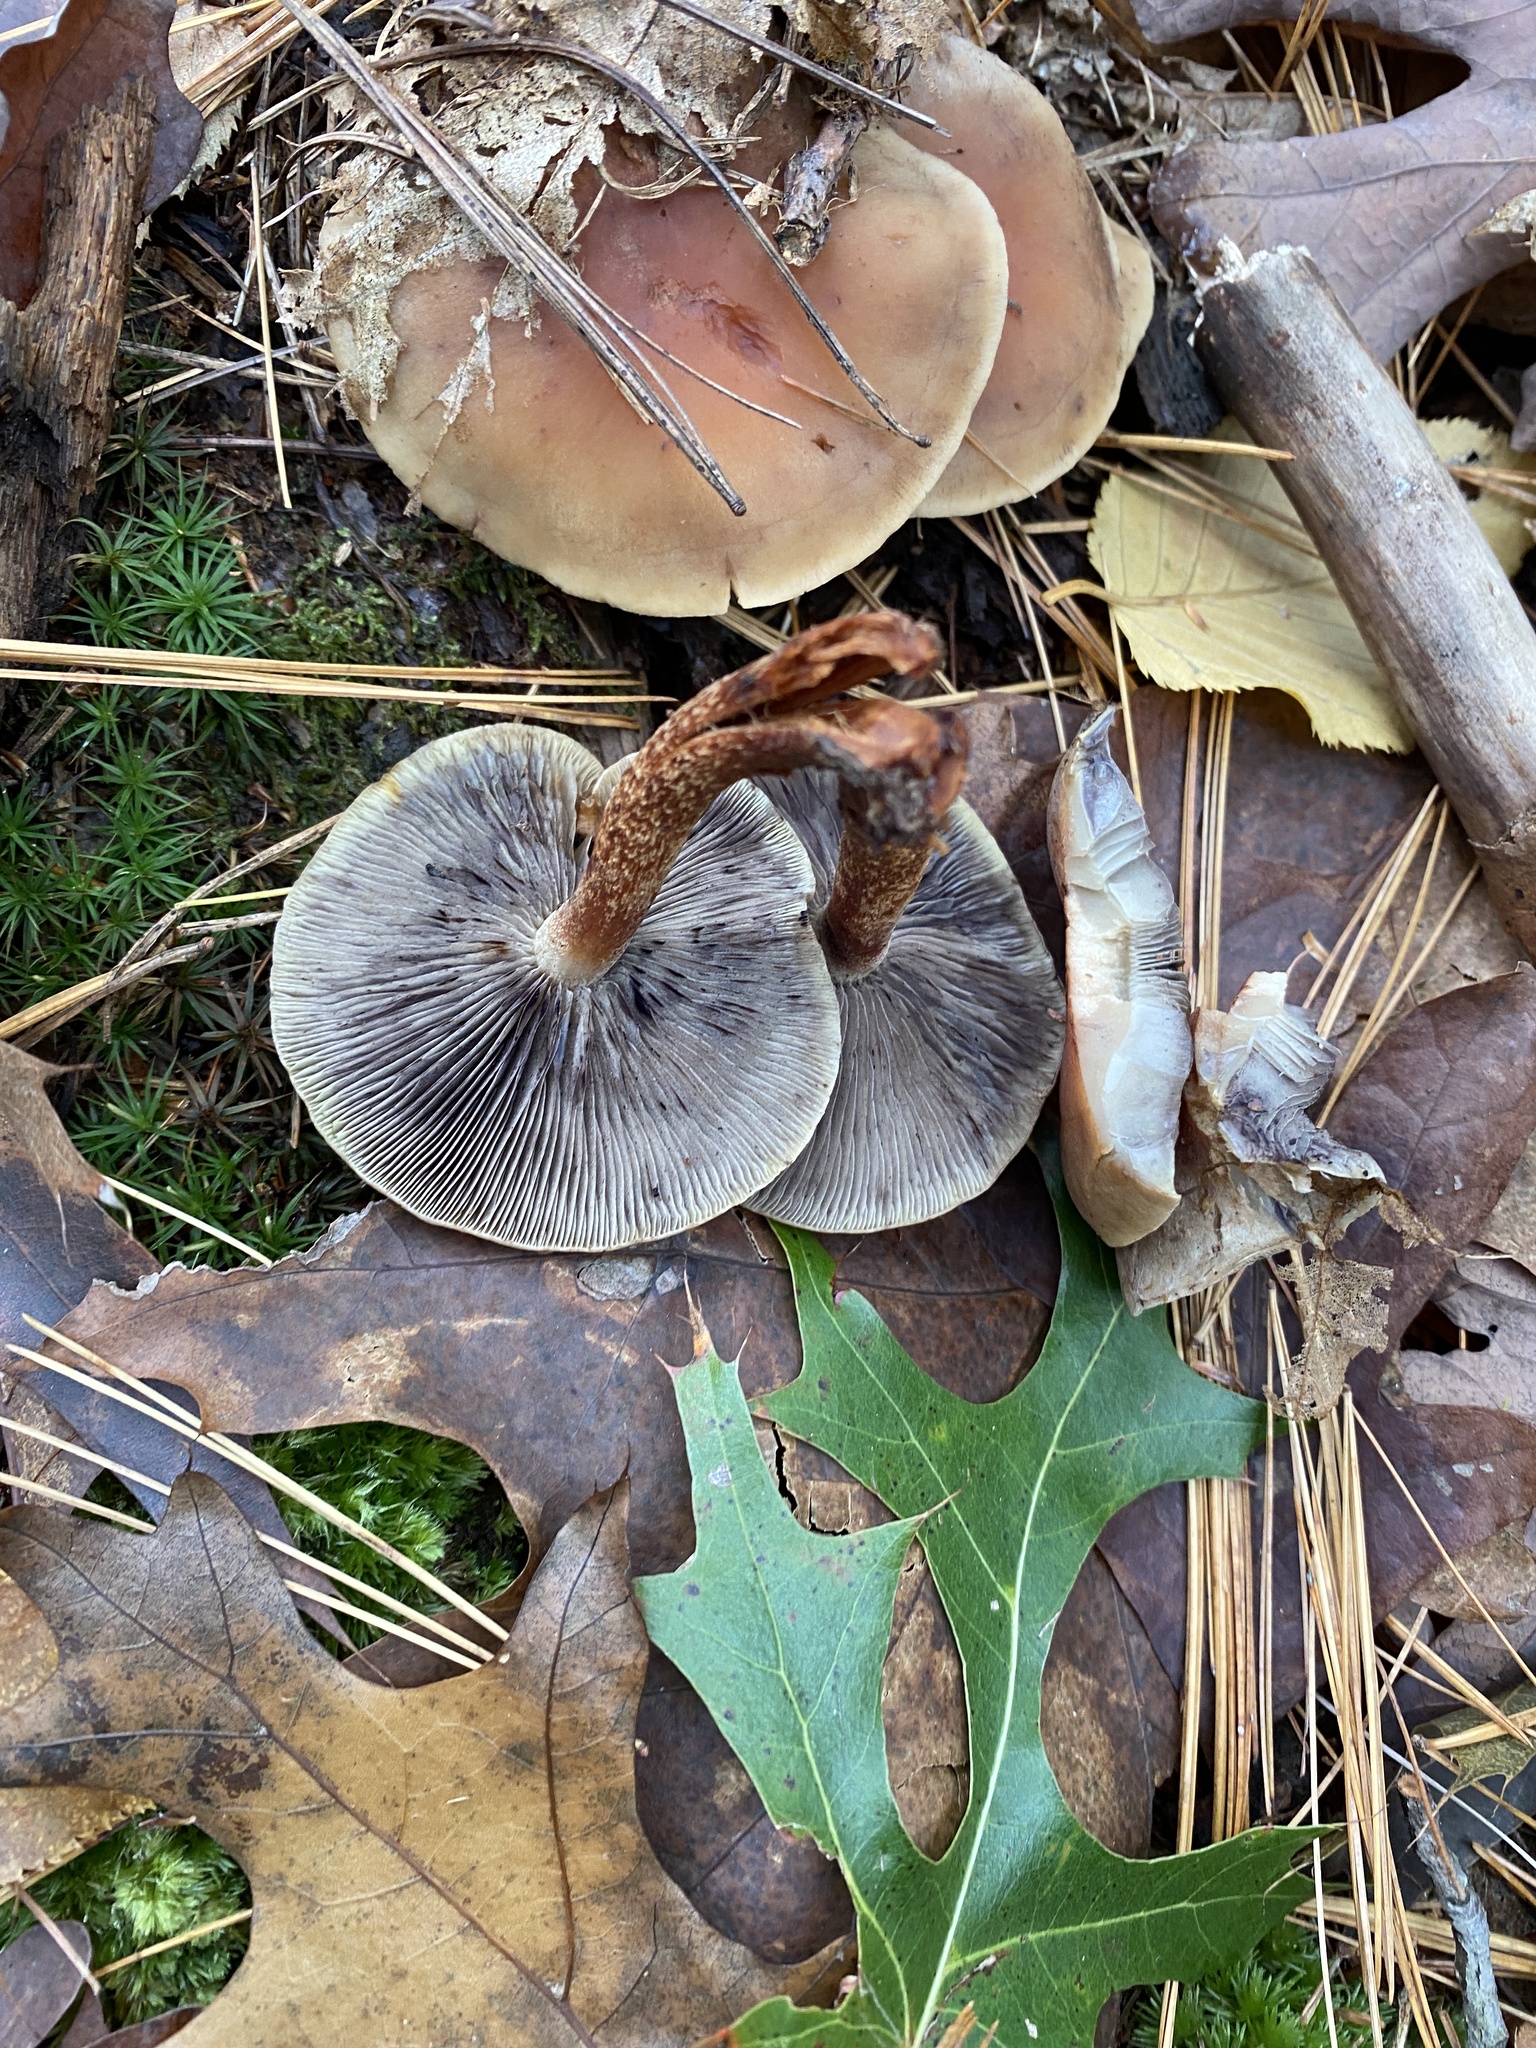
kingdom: Fungi
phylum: Basidiomycota
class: Agaricomycetes
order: Agaricales
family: Strophariaceae
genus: Hypholoma
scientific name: Hypholoma lateritium
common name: Brick caps
